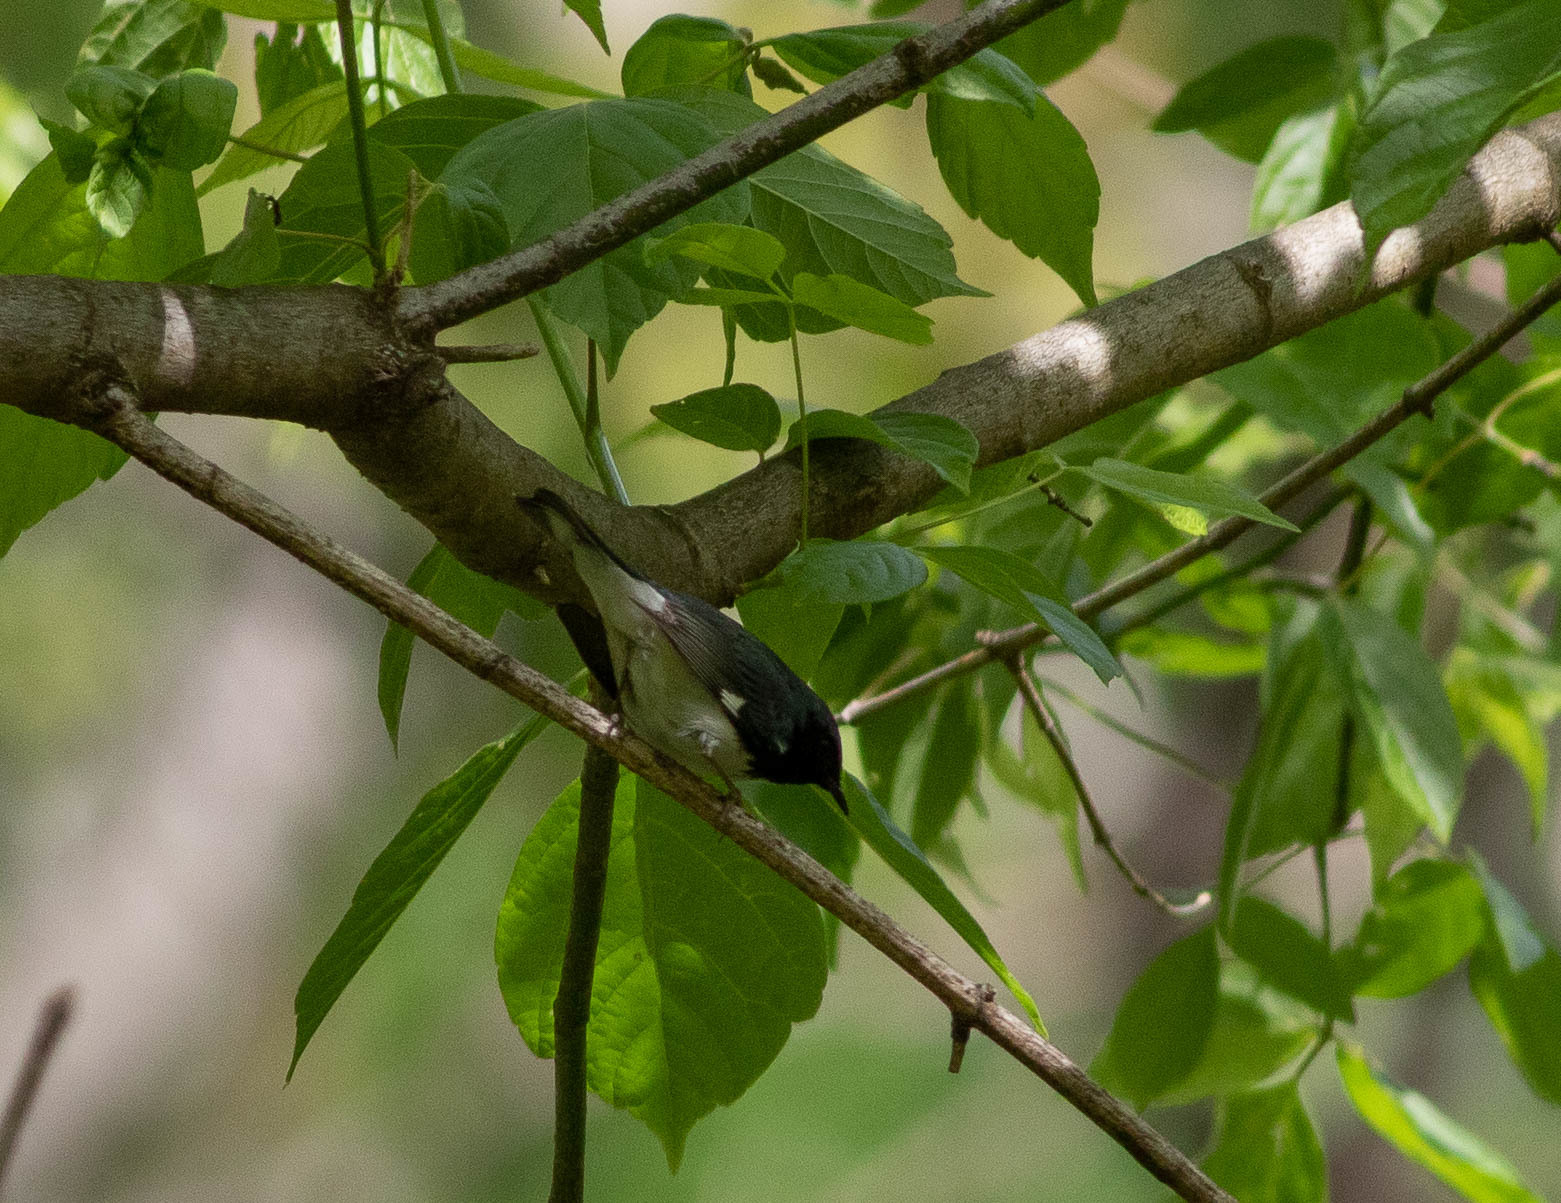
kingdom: Animalia
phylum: Chordata
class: Aves
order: Passeriformes
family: Parulidae
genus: Setophaga
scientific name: Setophaga caerulescens
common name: Black-throated blue warbler
